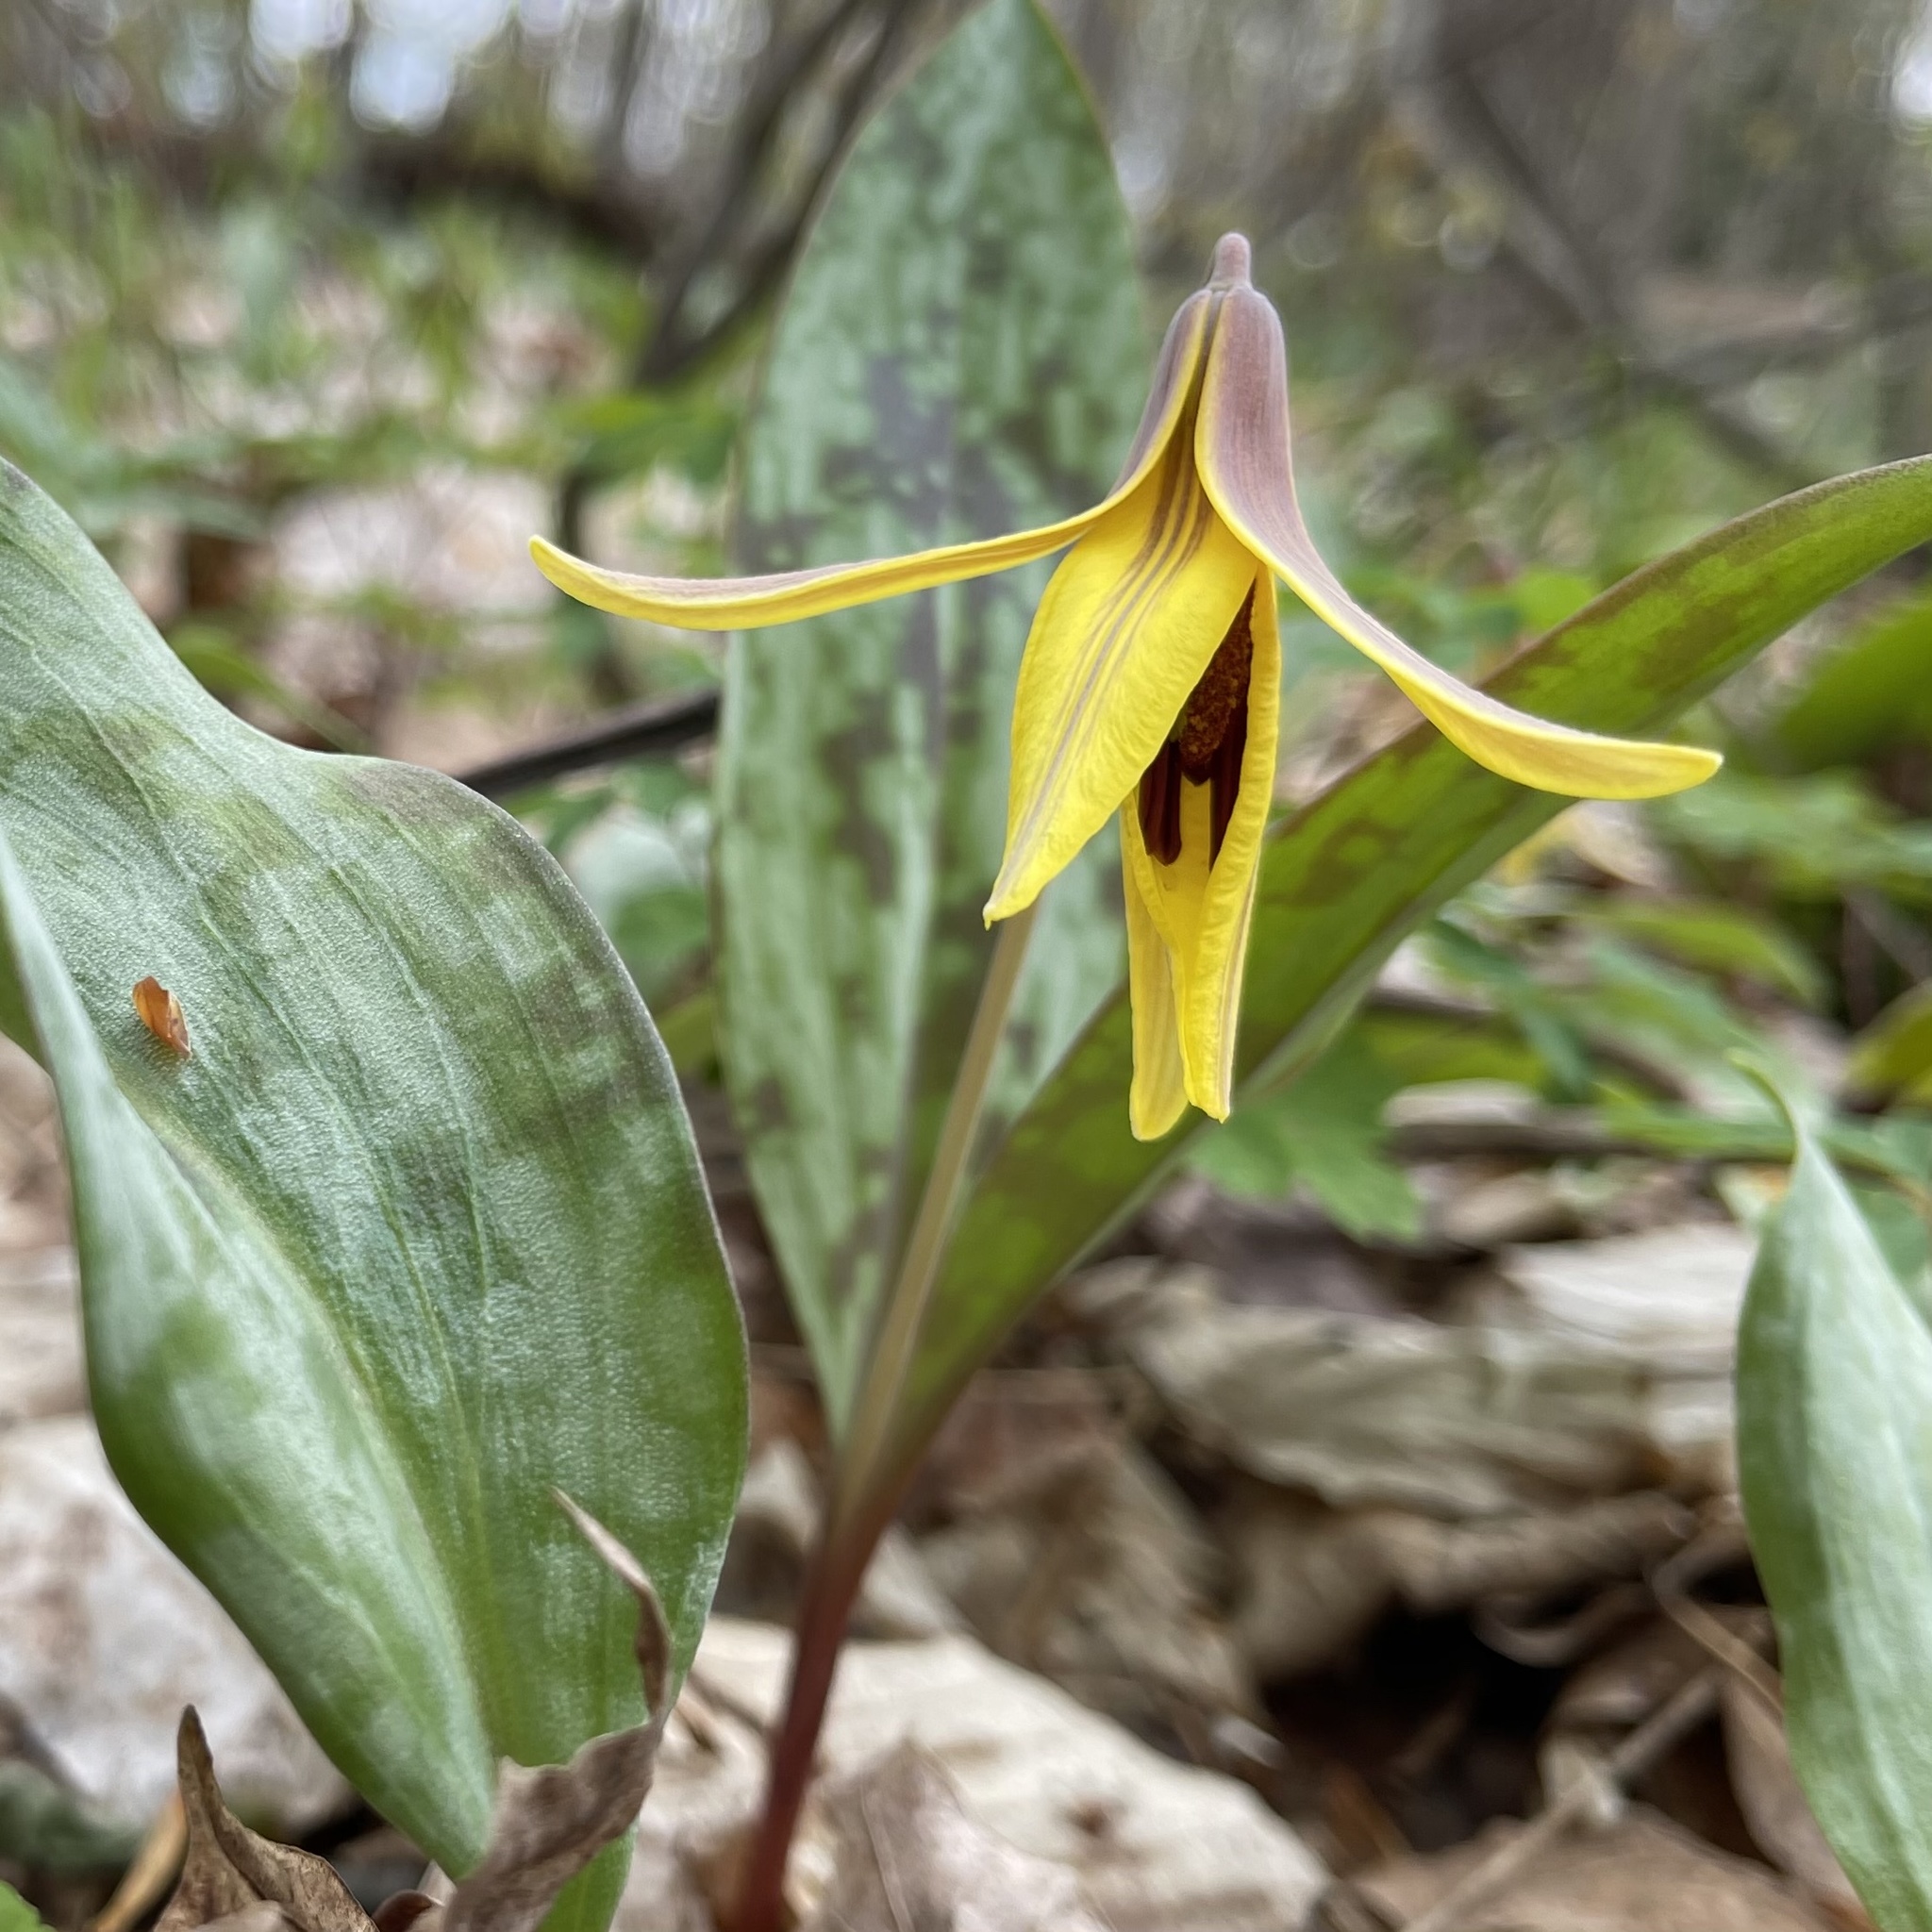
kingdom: Plantae
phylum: Tracheophyta
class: Liliopsida
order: Liliales
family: Liliaceae
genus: Erythronium
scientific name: Erythronium americanum
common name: Yellow adder's-tongue
